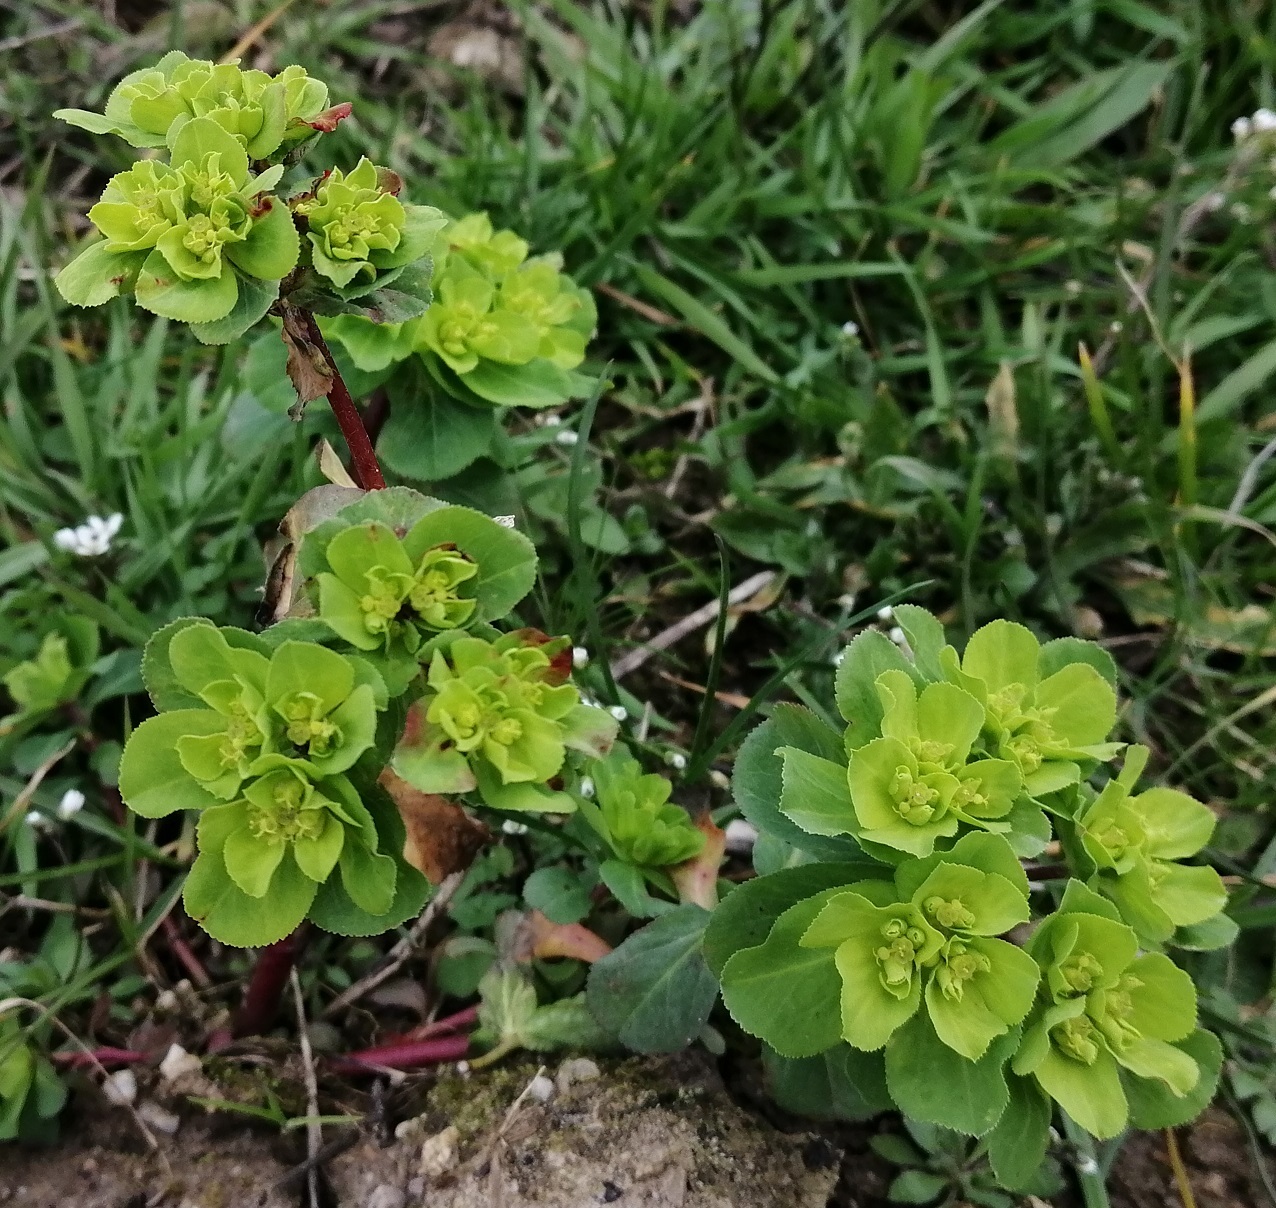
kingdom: Plantae
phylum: Tracheophyta
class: Magnoliopsida
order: Malpighiales
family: Euphorbiaceae
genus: Euphorbia
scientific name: Euphorbia helioscopia
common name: Sun spurge
